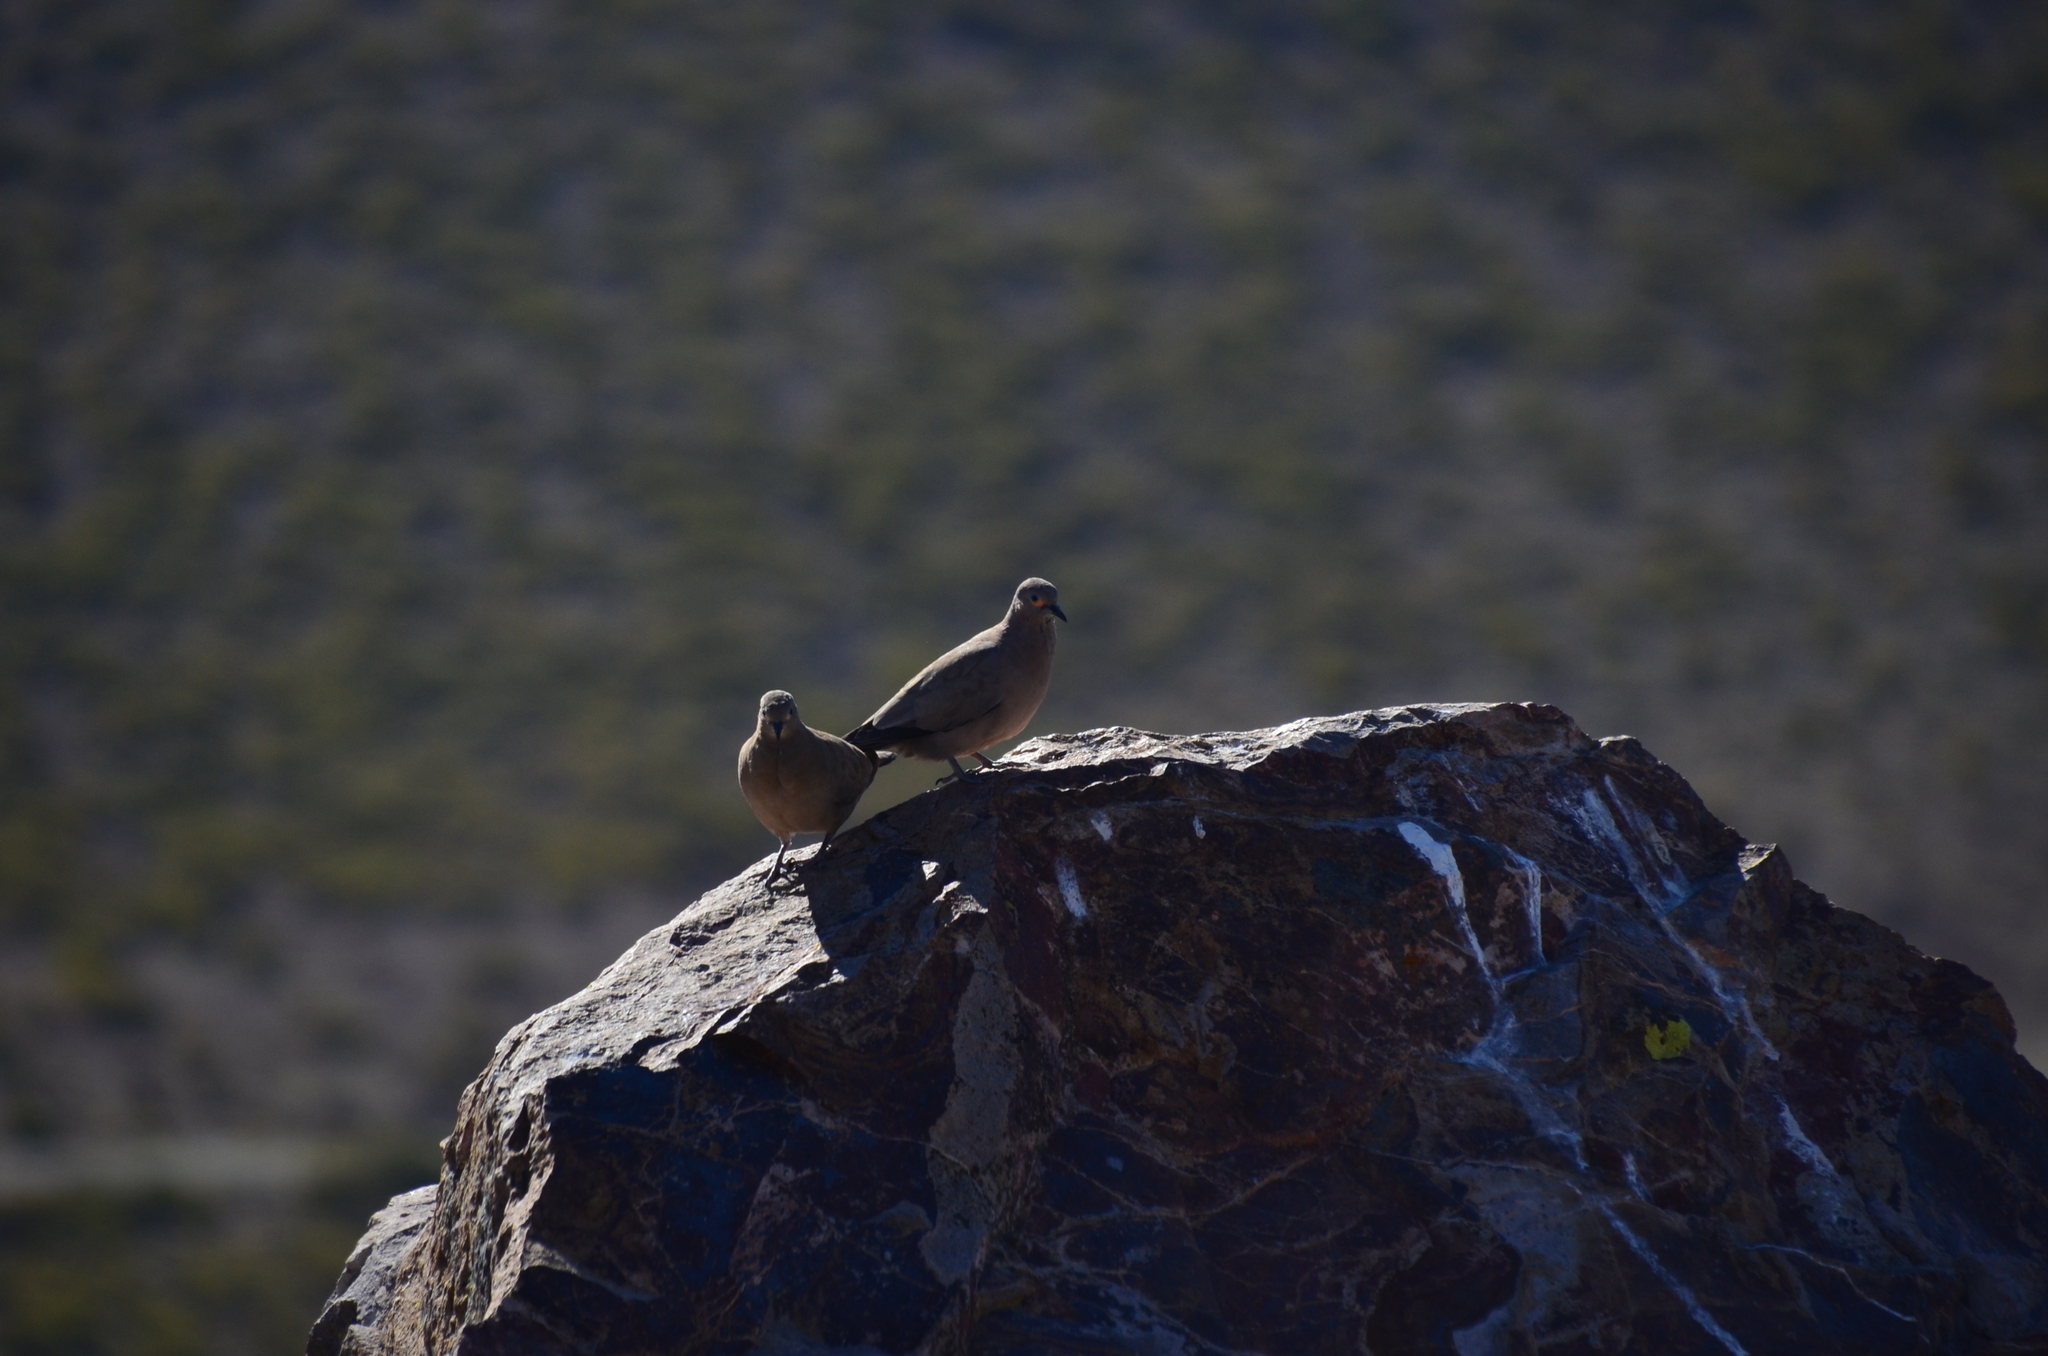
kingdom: Animalia
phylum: Chordata
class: Aves
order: Columbiformes
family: Columbidae
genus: Metriopelia
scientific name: Metriopelia melanoptera
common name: Black-winged ground dove
